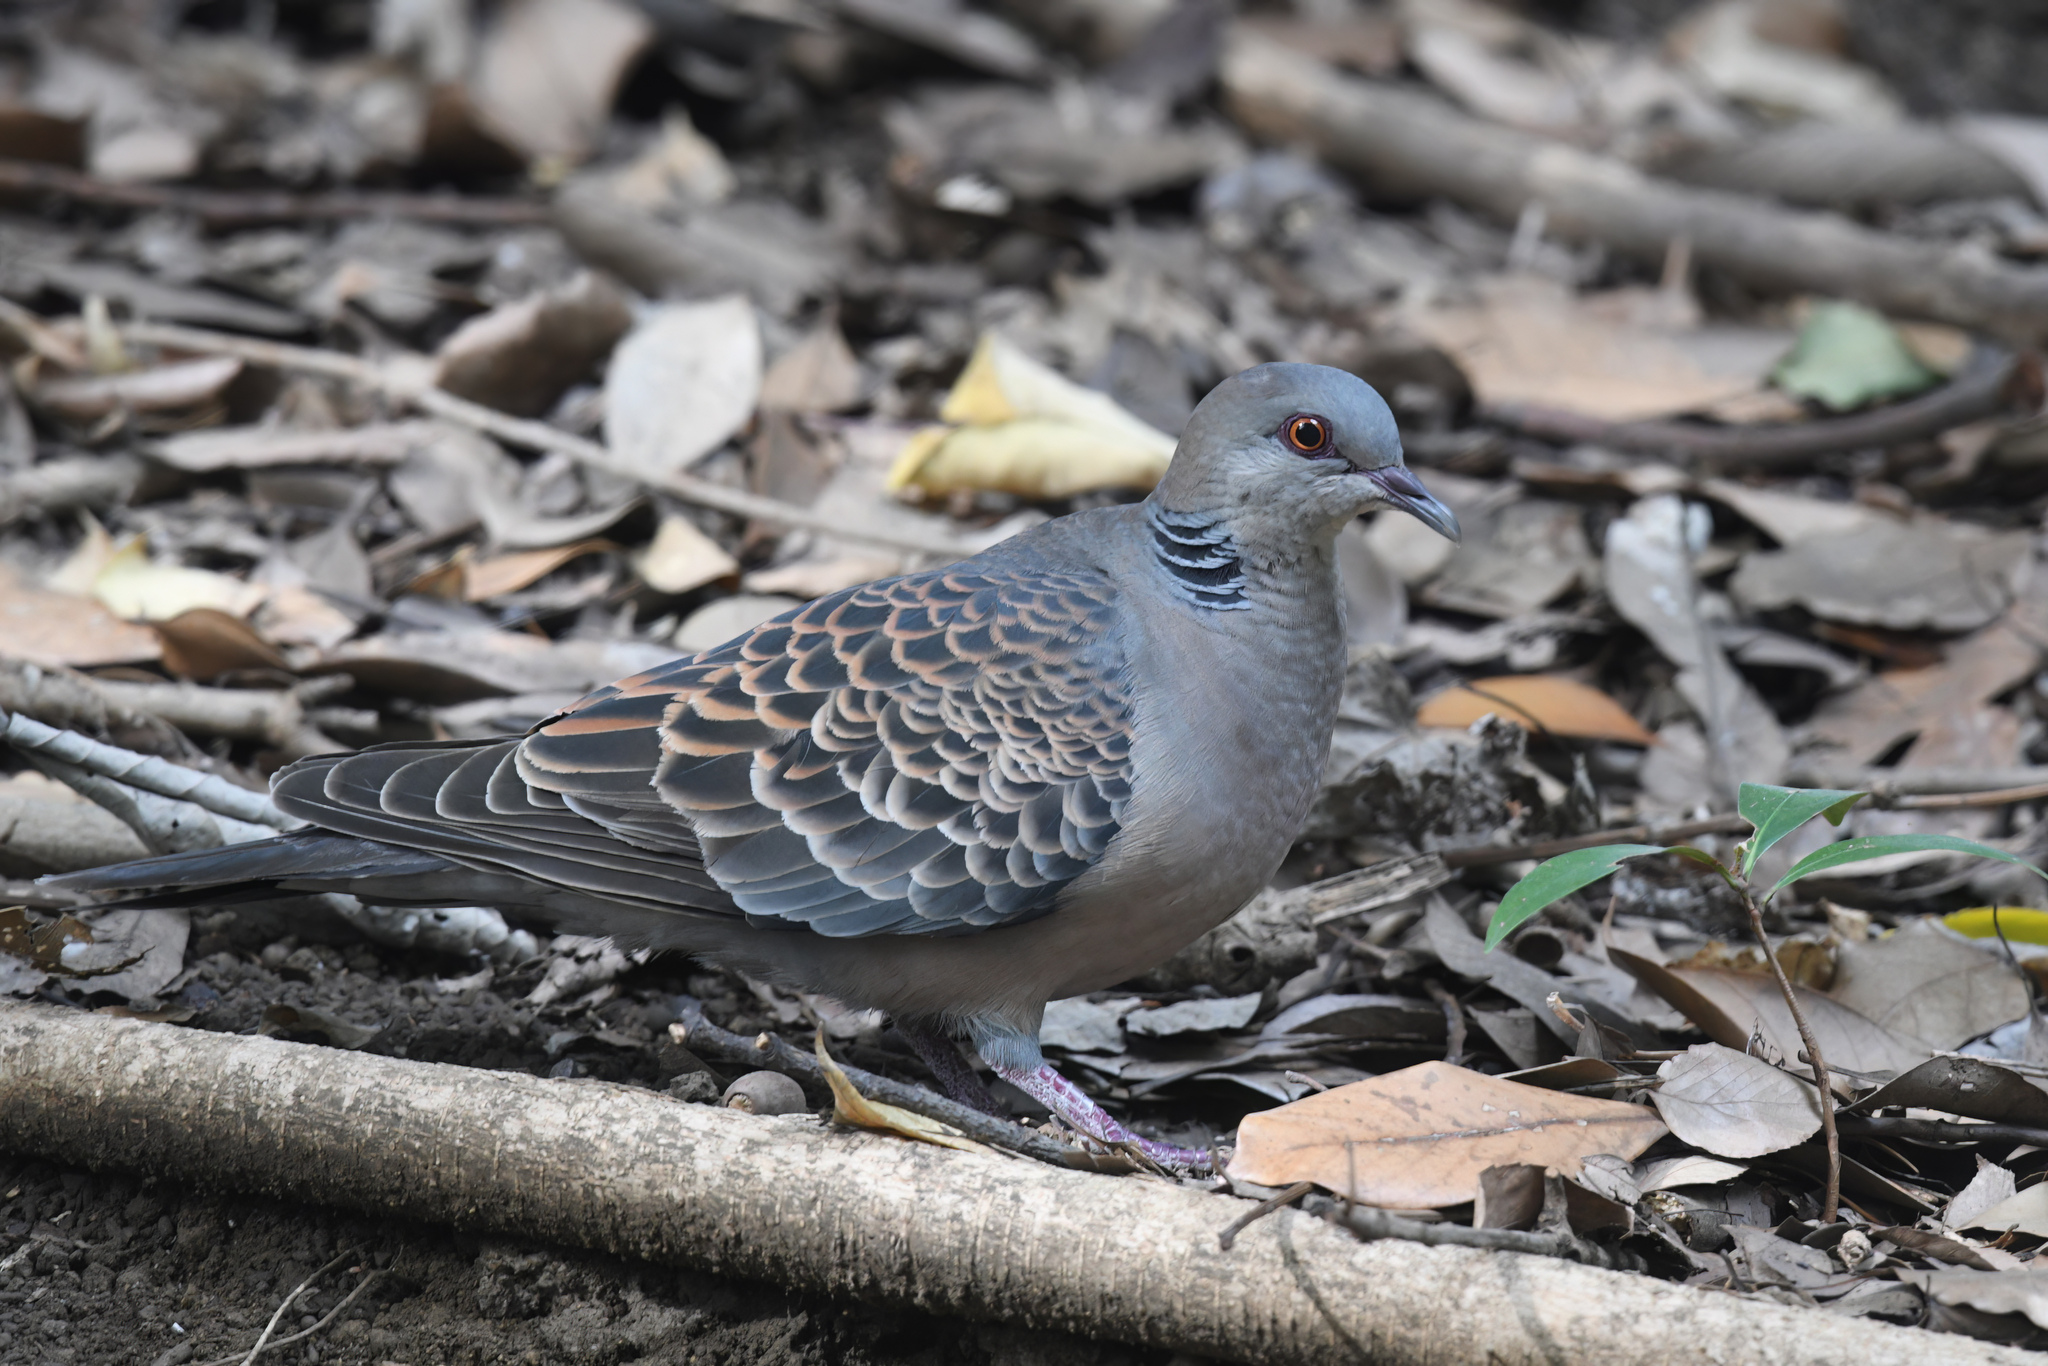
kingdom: Animalia
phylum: Chordata
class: Aves
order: Columbiformes
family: Columbidae
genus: Streptopelia
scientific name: Streptopelia orientalis
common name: Oriental turtle dove
